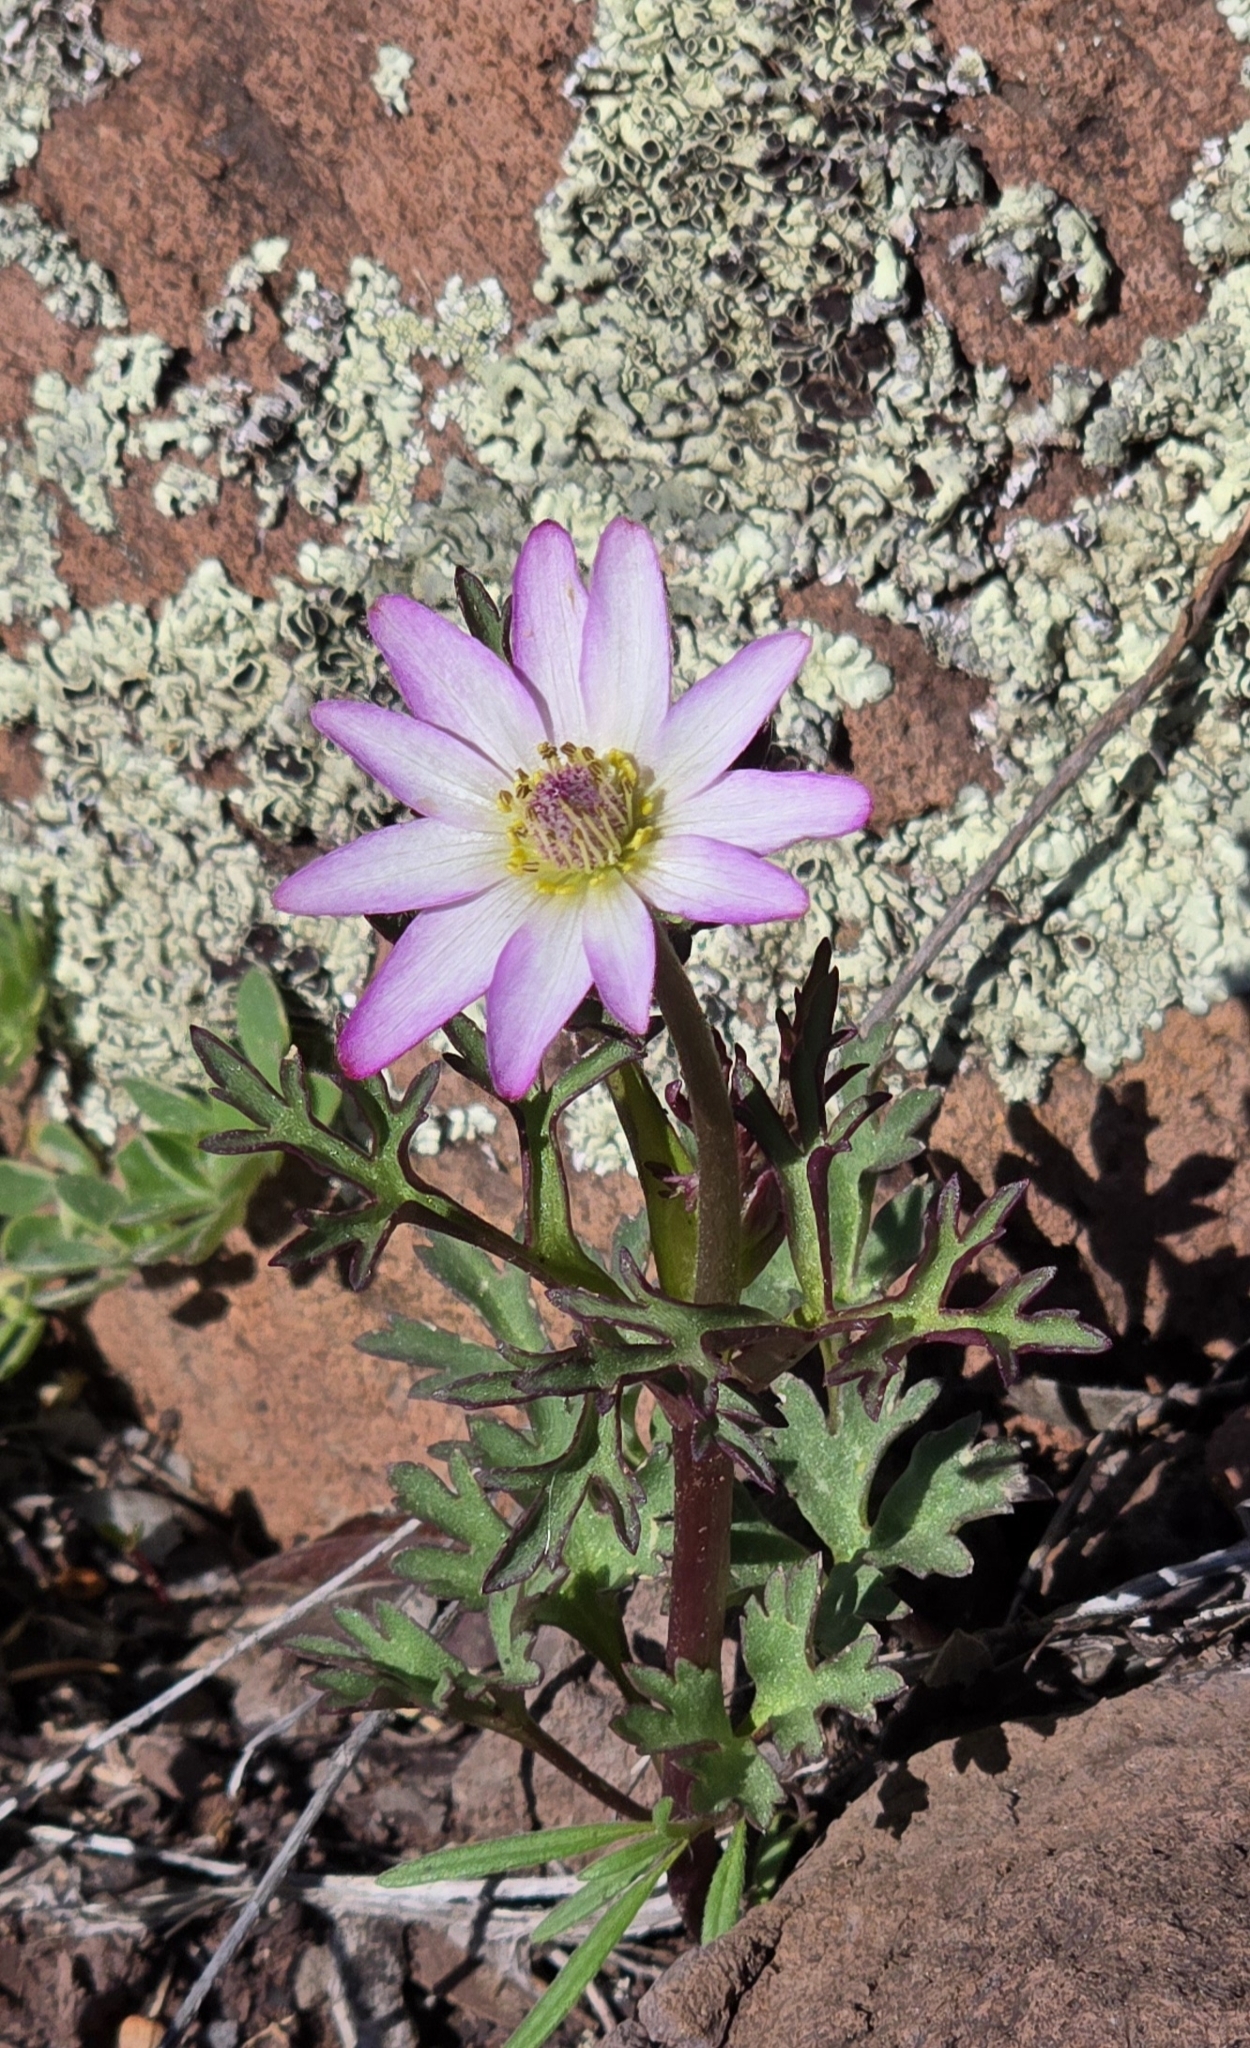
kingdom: Plantae
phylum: Tracheophyta
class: Magnoliopsida
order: Ranunculales
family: Ranunculaceae
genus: Anemone
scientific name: Anemone tuberosa
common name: Desert anemone
